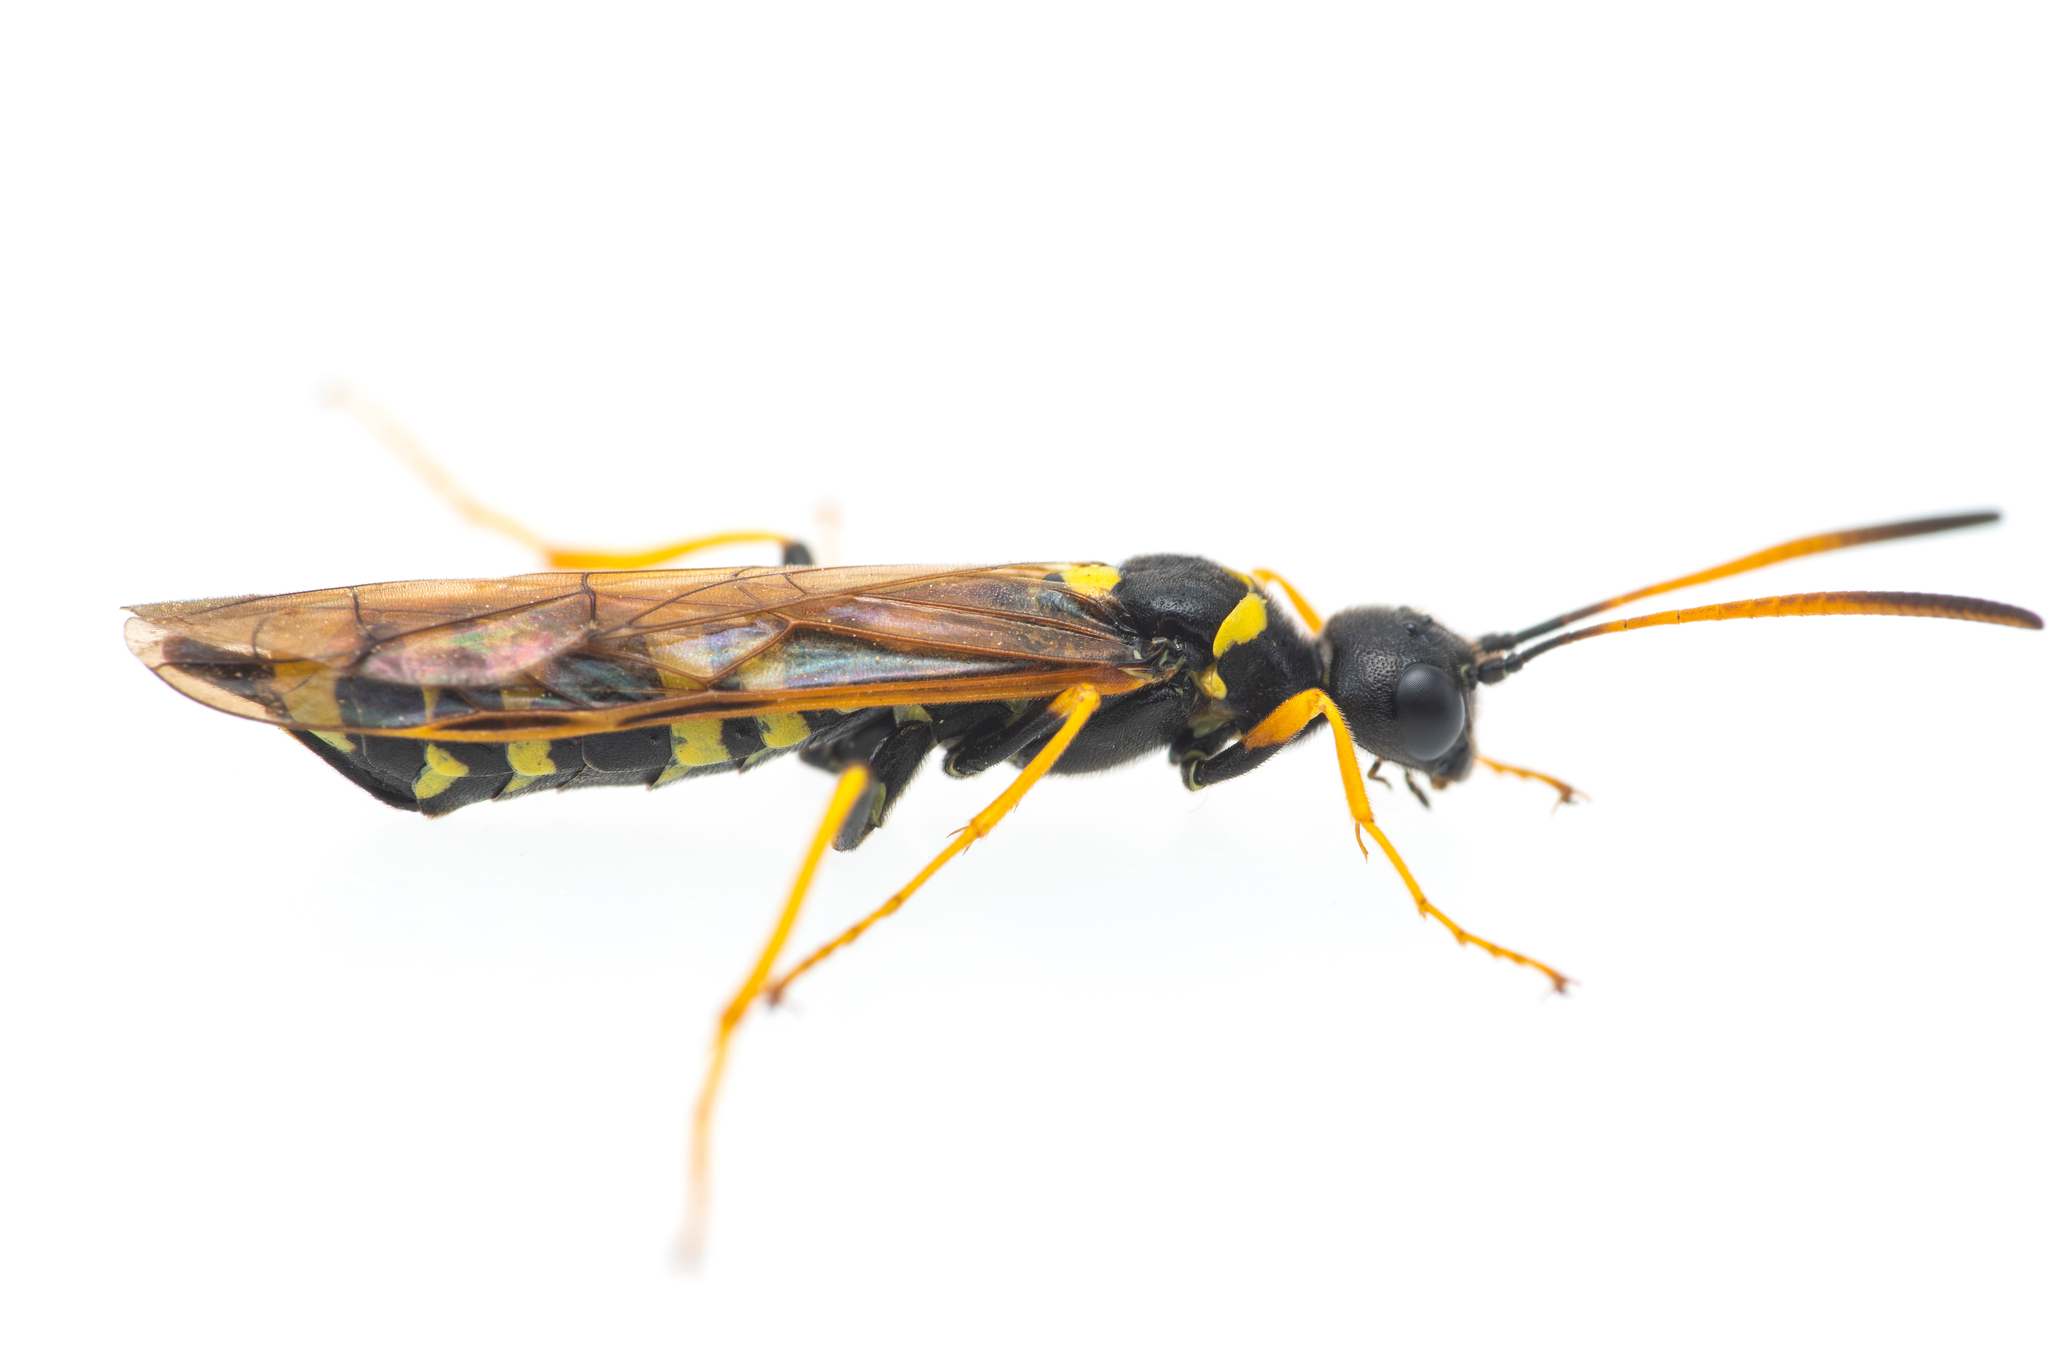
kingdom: Animalia
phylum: Arthropoda
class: Insecta
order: Hymenoptera
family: Cephidae
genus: Trachelus
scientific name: Trachelus flavicornis
